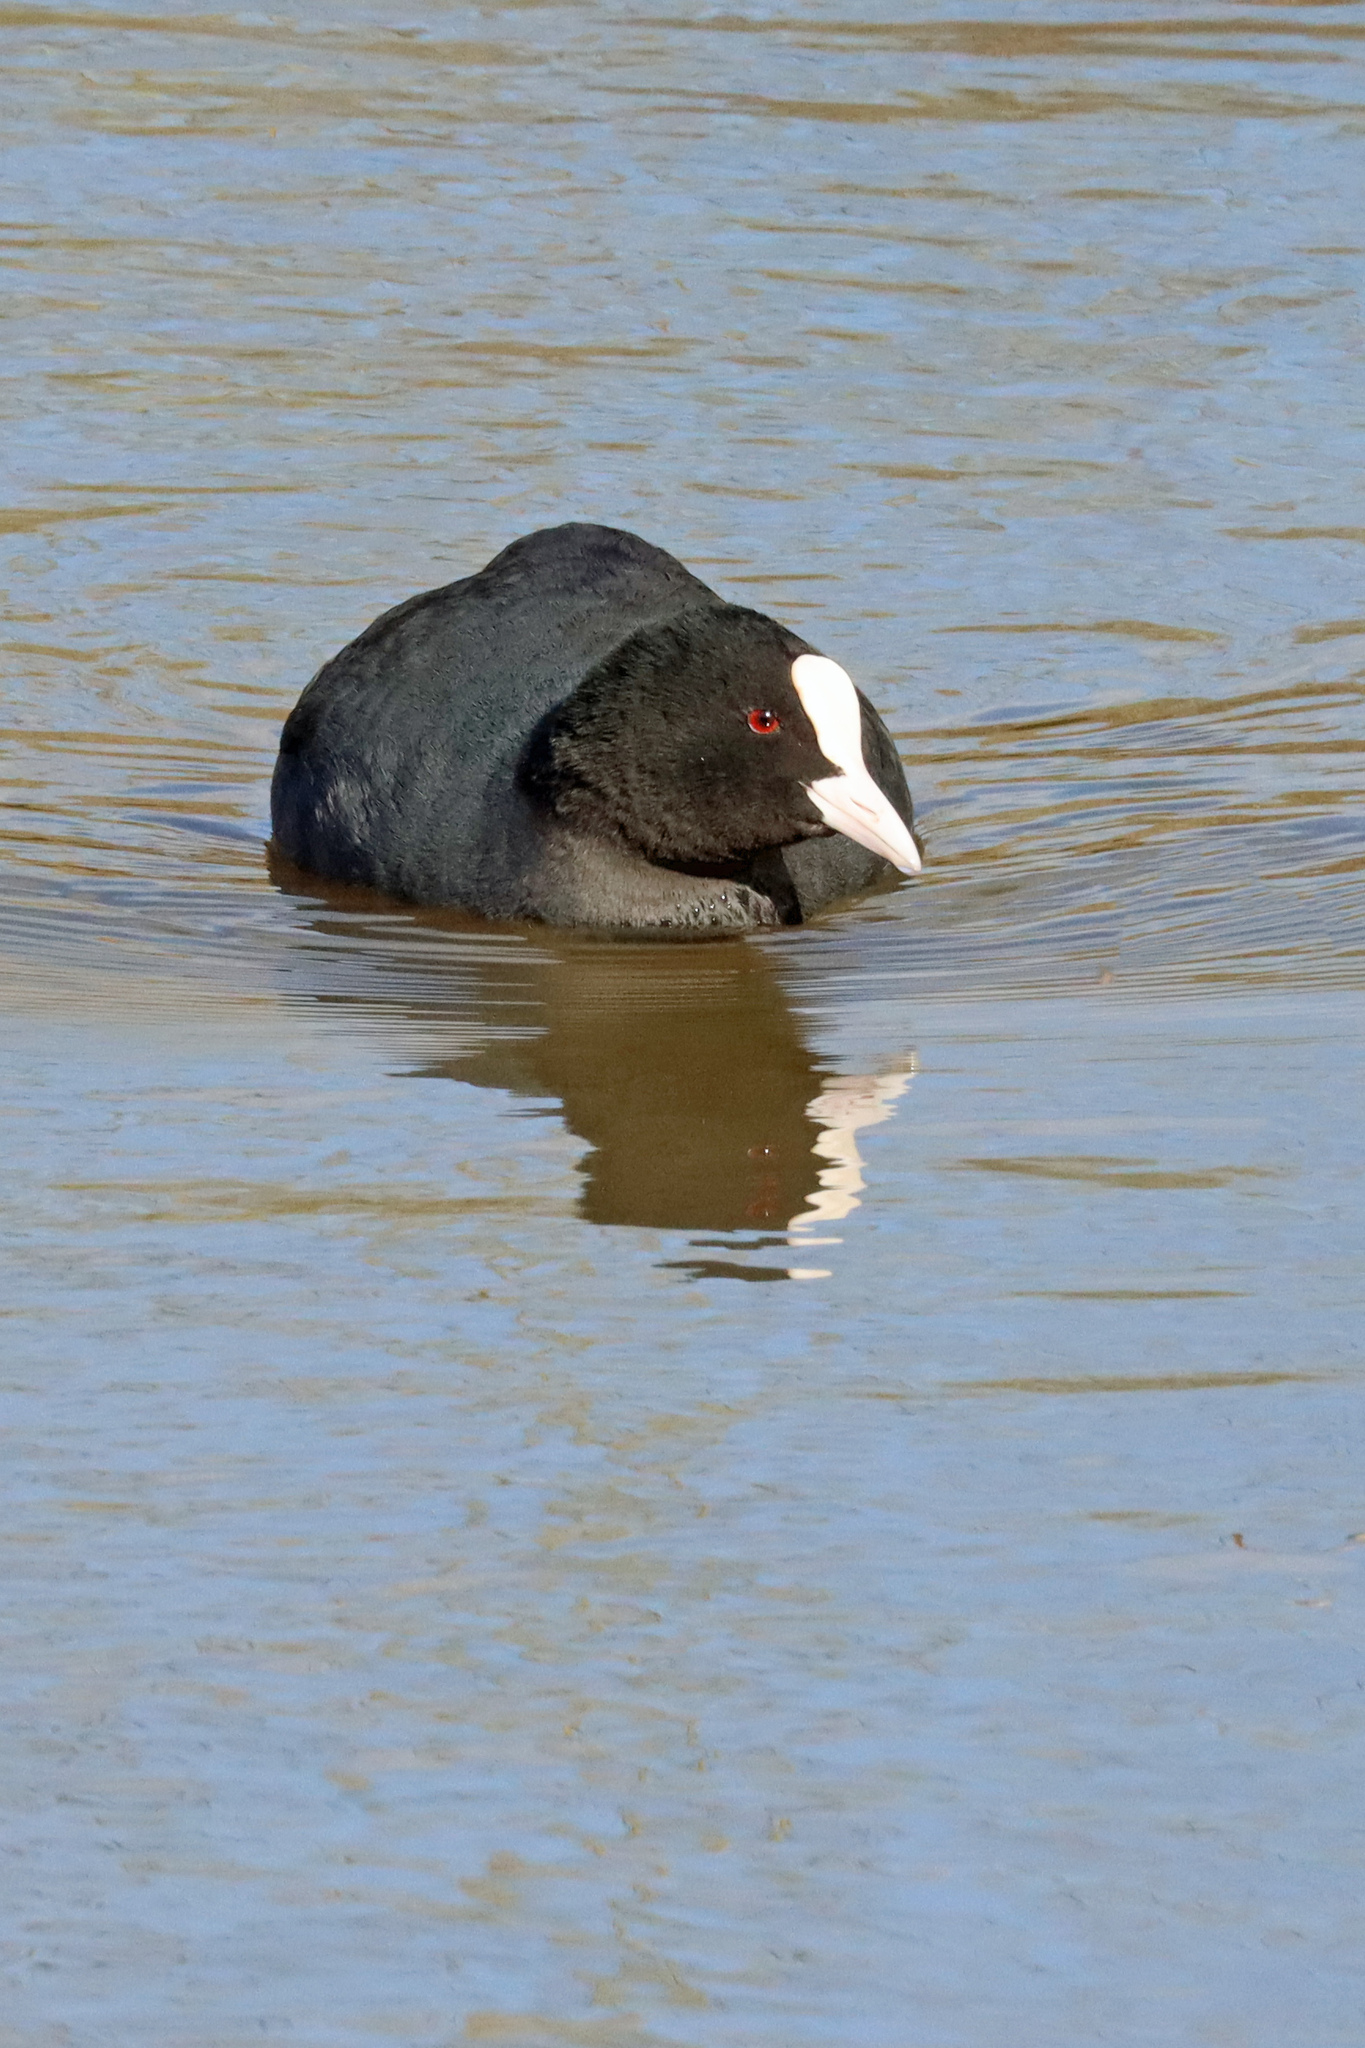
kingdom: Animalia
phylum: Chordata
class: Aves
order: Gruiformes
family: Rallidae
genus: Fulica
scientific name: Fulica atra
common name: Eurasian coot
